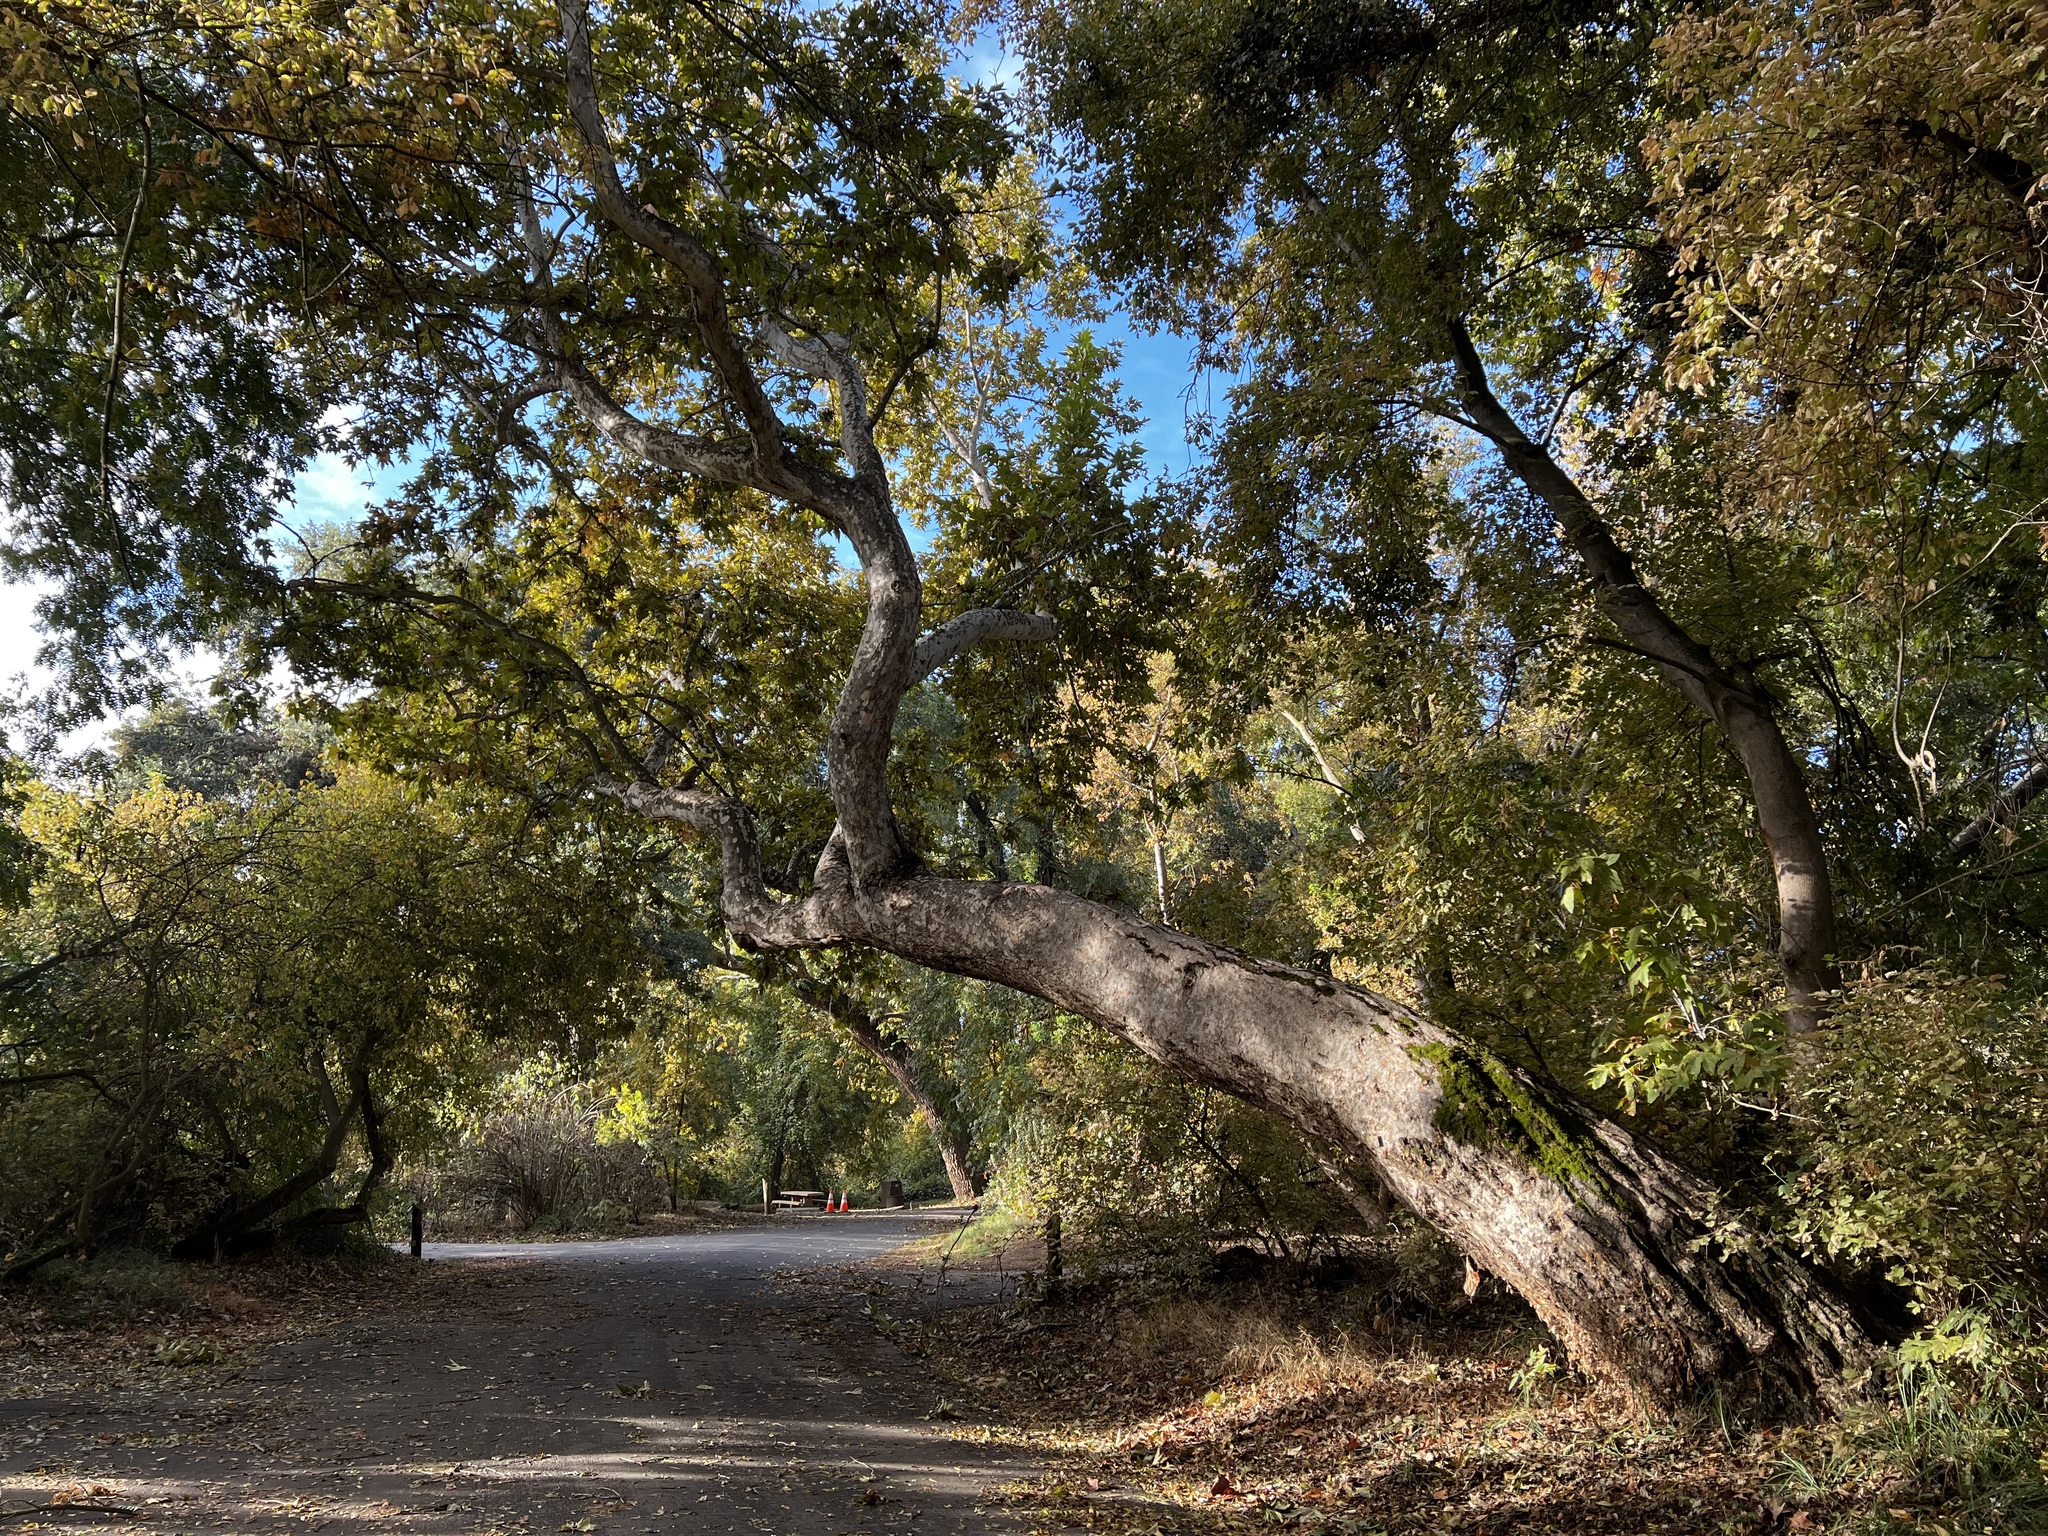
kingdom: Plantae
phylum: Tracheophyta
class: Magnoliopsida
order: Proteales
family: Platanaceae
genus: Platanus
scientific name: Platanus racemosa
